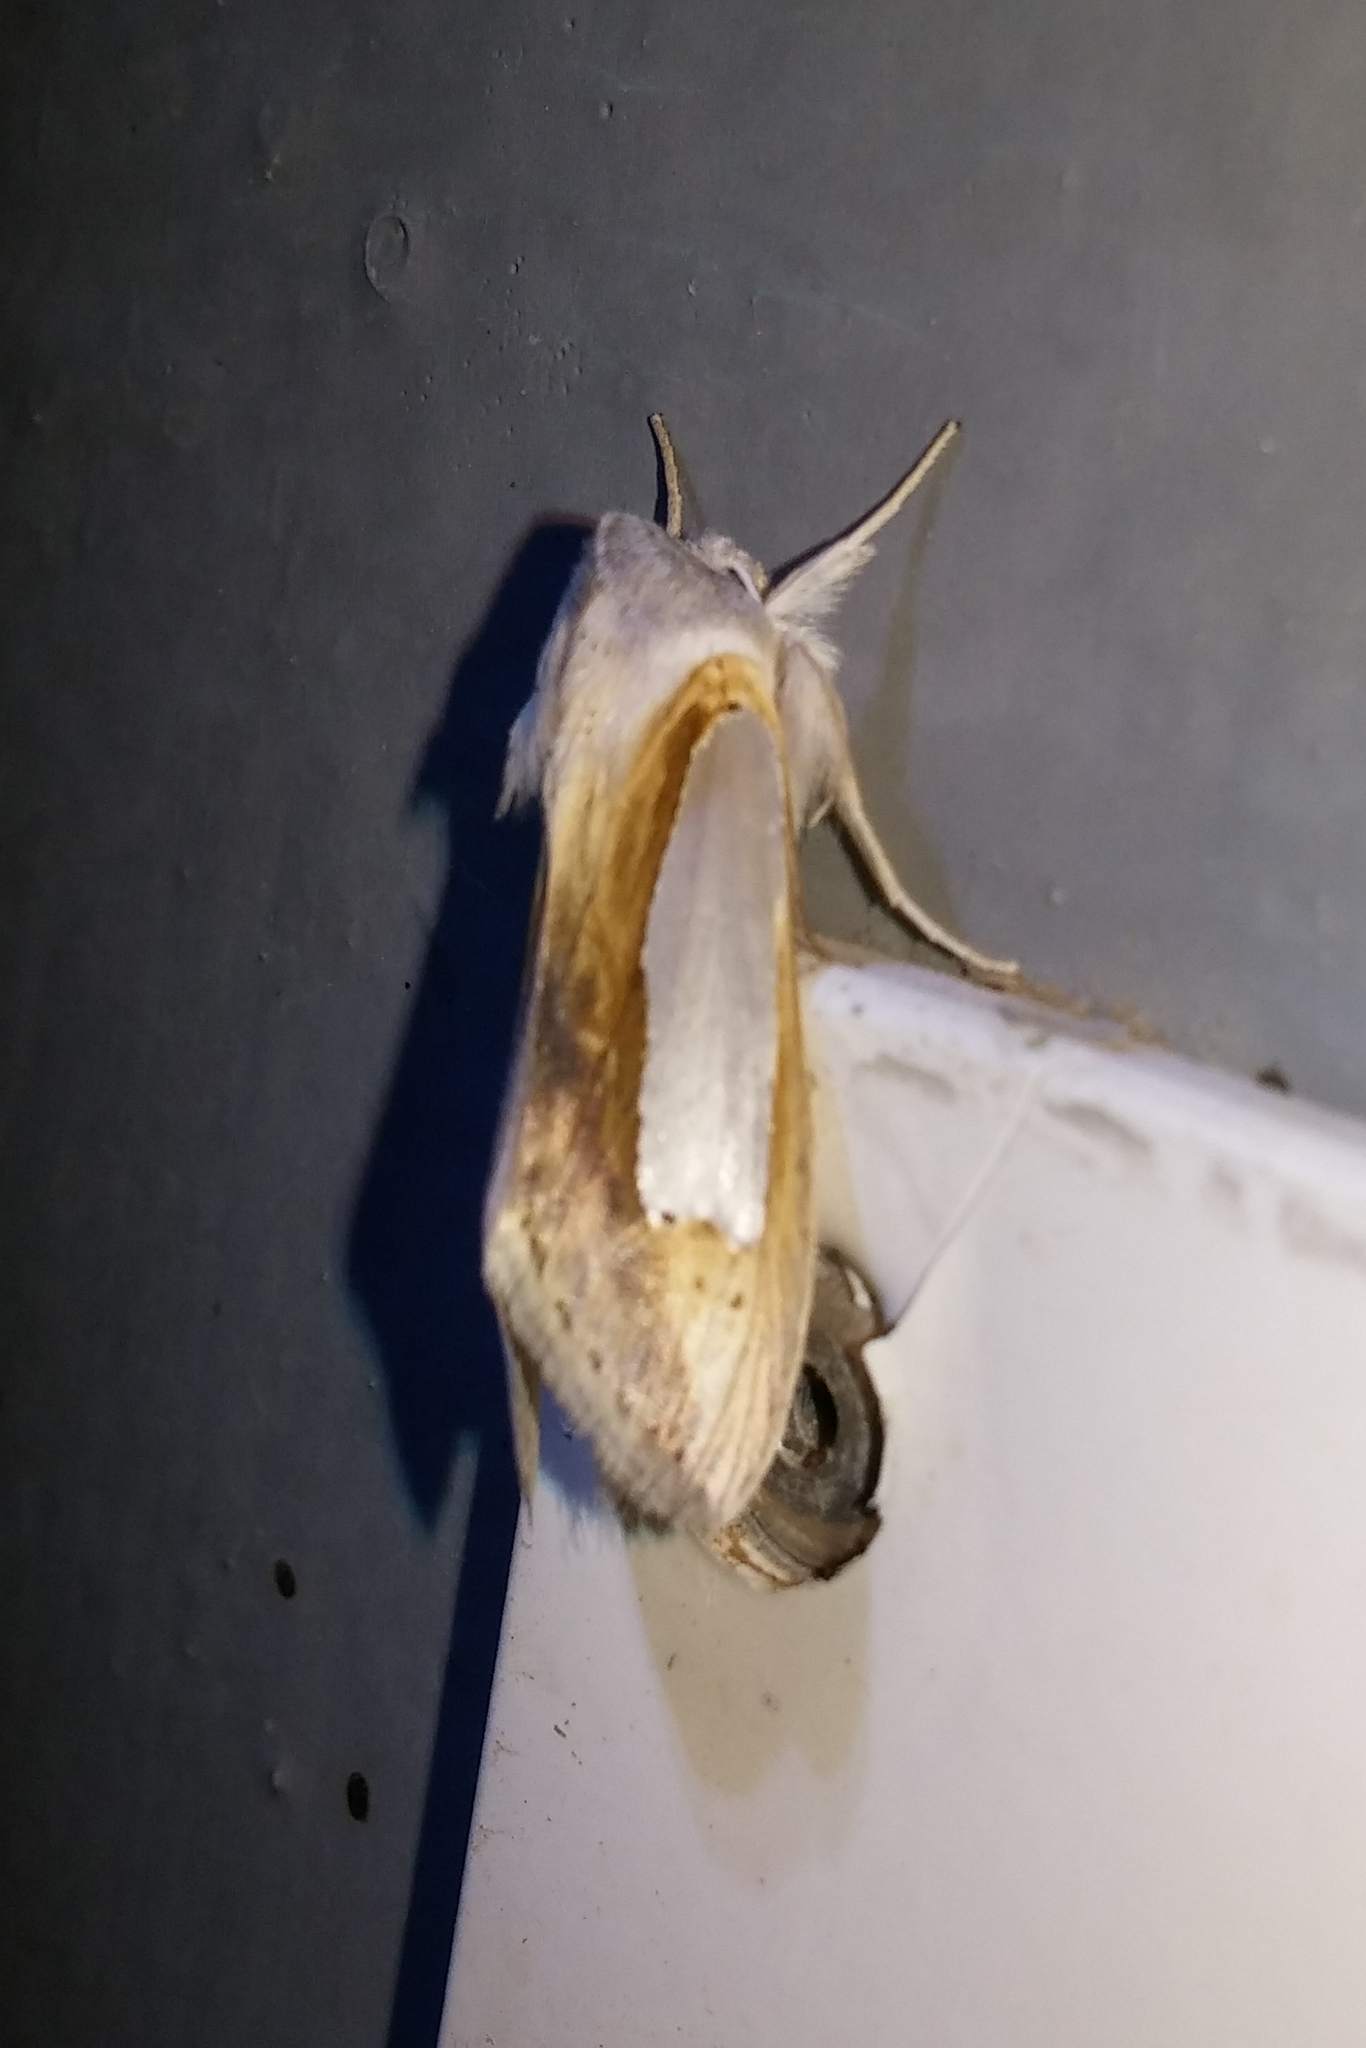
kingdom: Animalia
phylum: Arthropoda
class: Insecta
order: Lepidoptera
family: Noctuidae
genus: Cucullia
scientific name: Cucullia argentina
